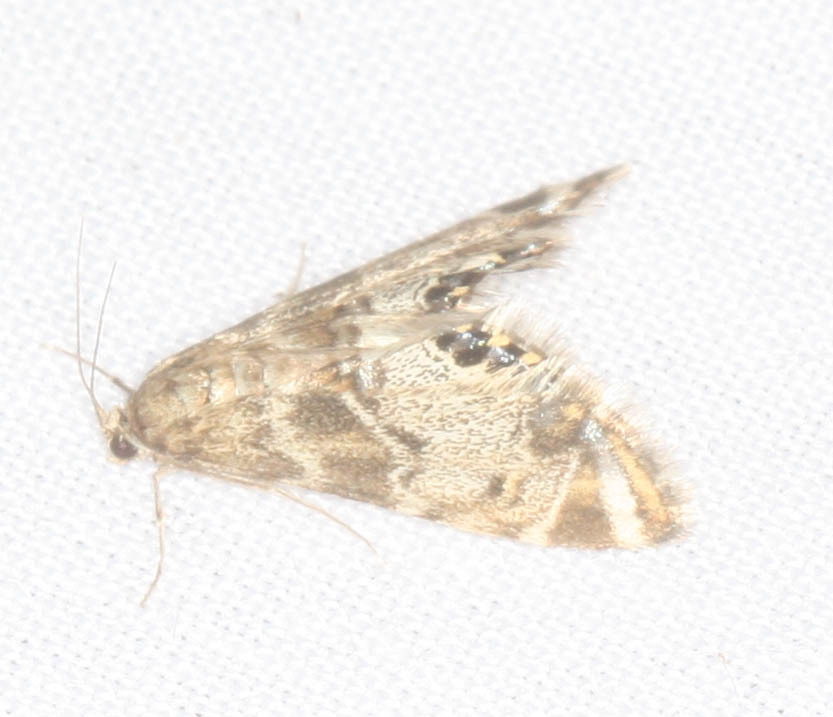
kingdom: Animalia
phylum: Arthropoda
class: Insecta
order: Lepidoptera
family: Crambidae
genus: Petrophila
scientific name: Petrophila confusalis
